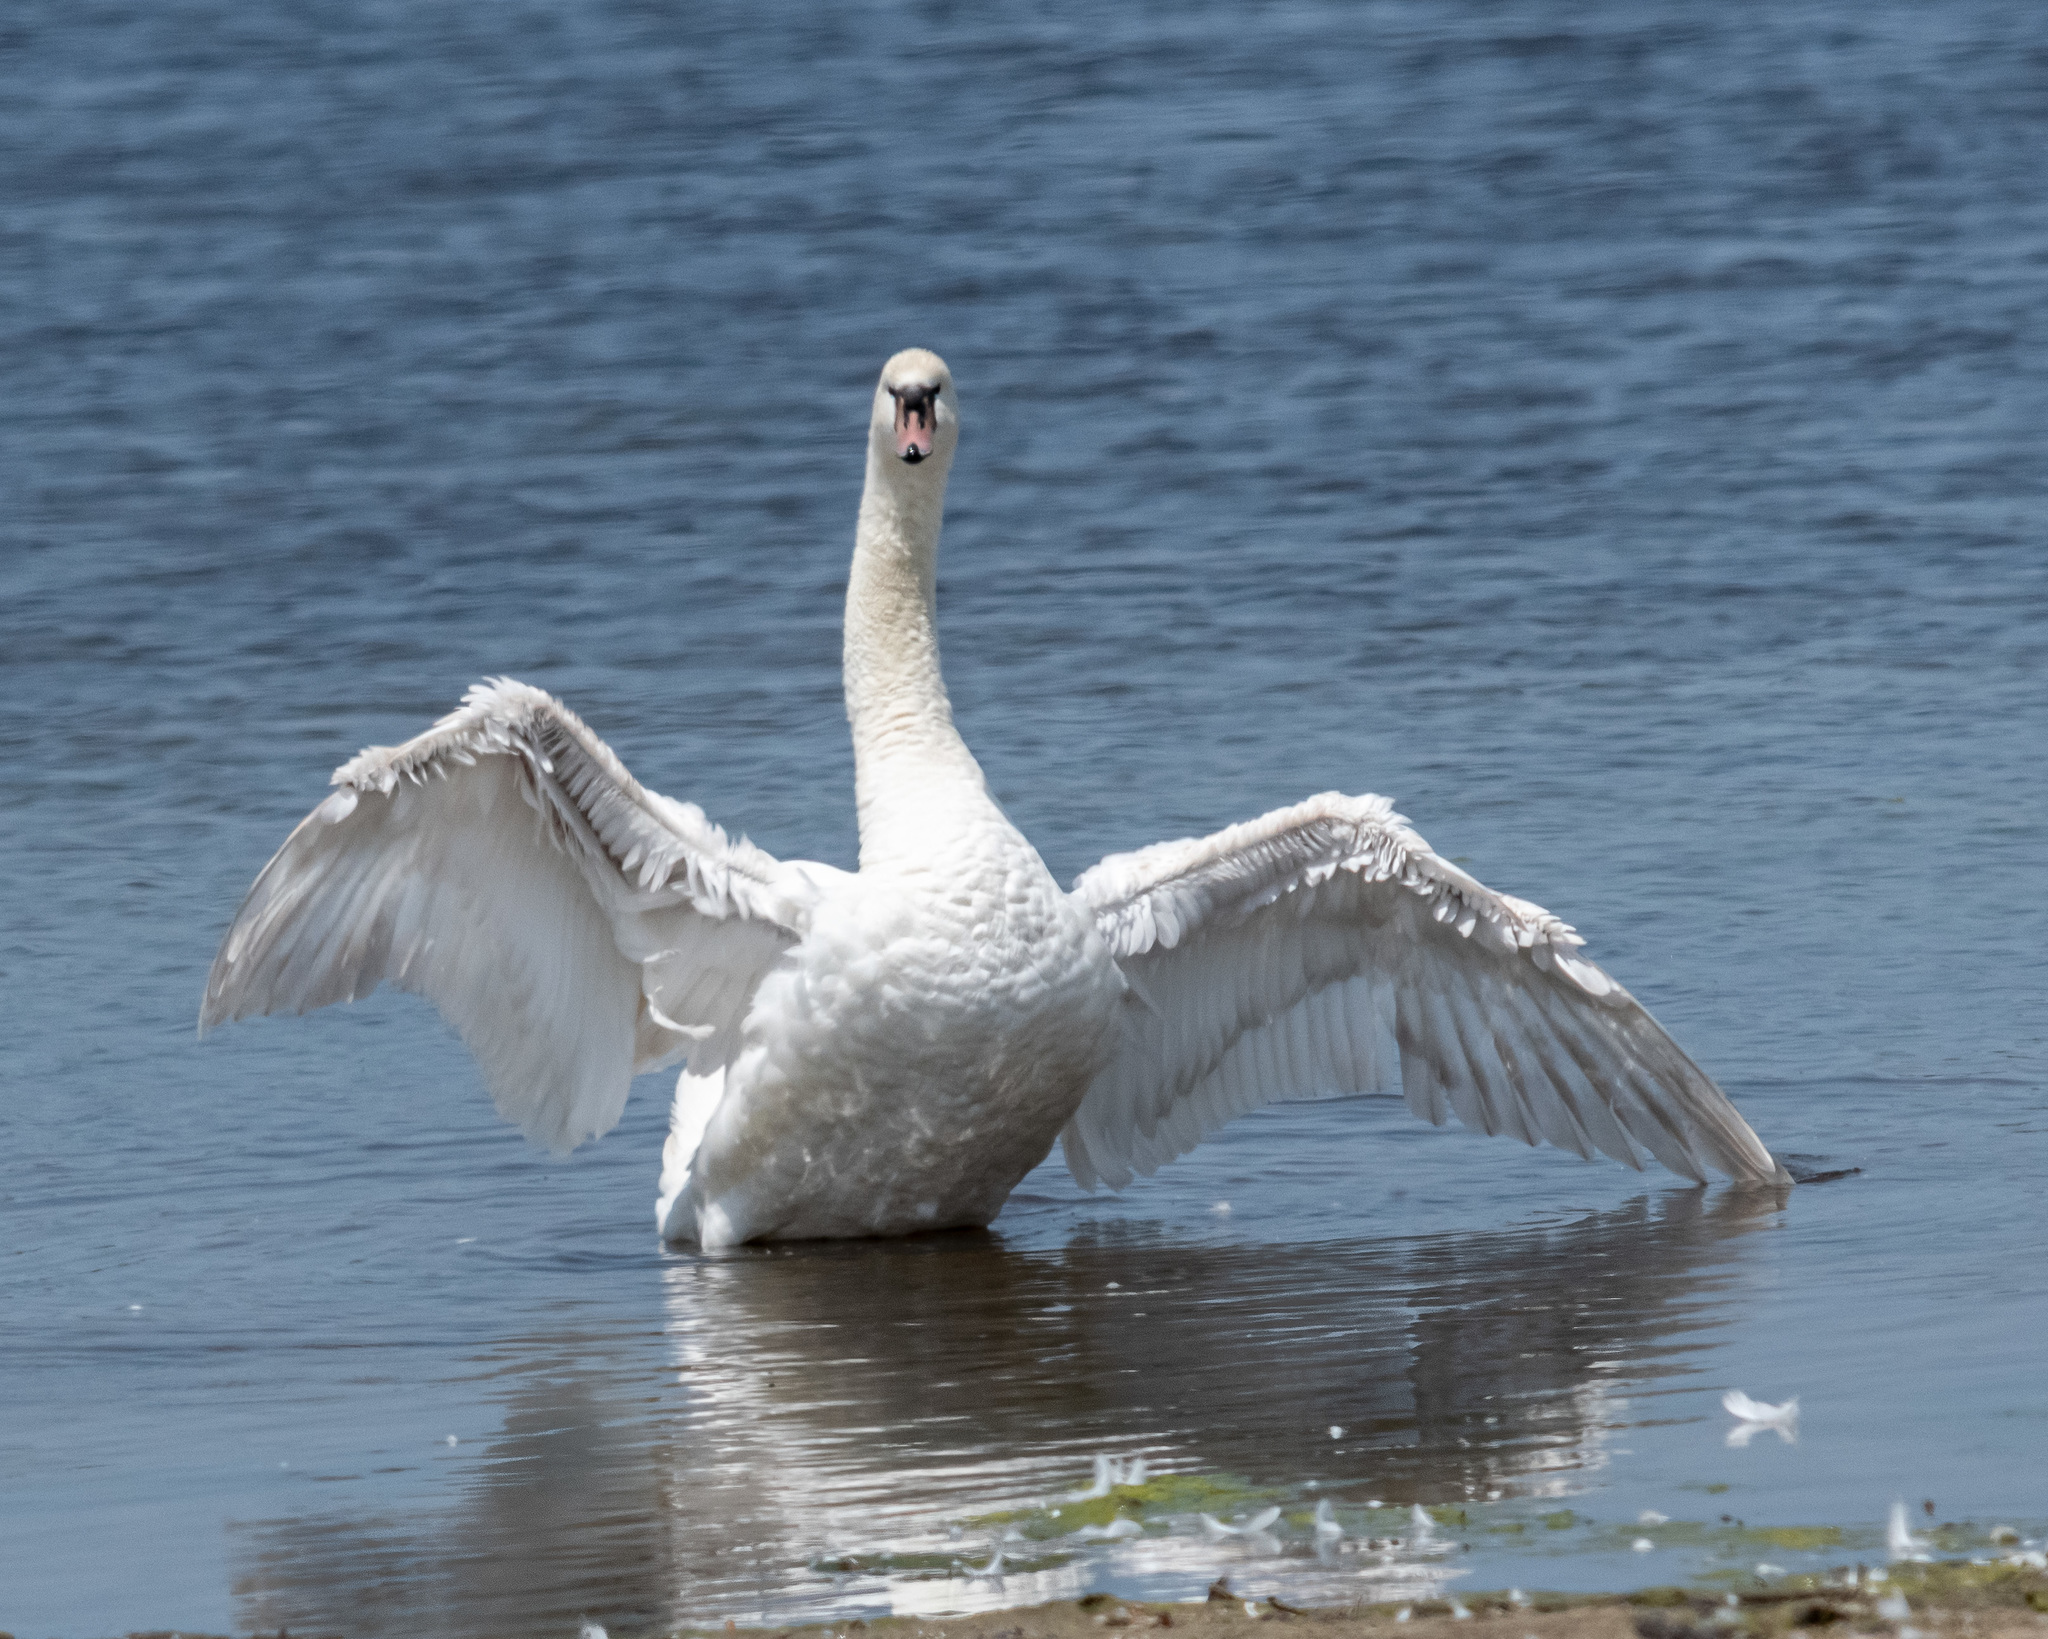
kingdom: Animalia
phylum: Chordata
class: Aves
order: Anseriformes
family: Anatidae
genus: Cygnus
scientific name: Cygnus olor
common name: Mute swan
